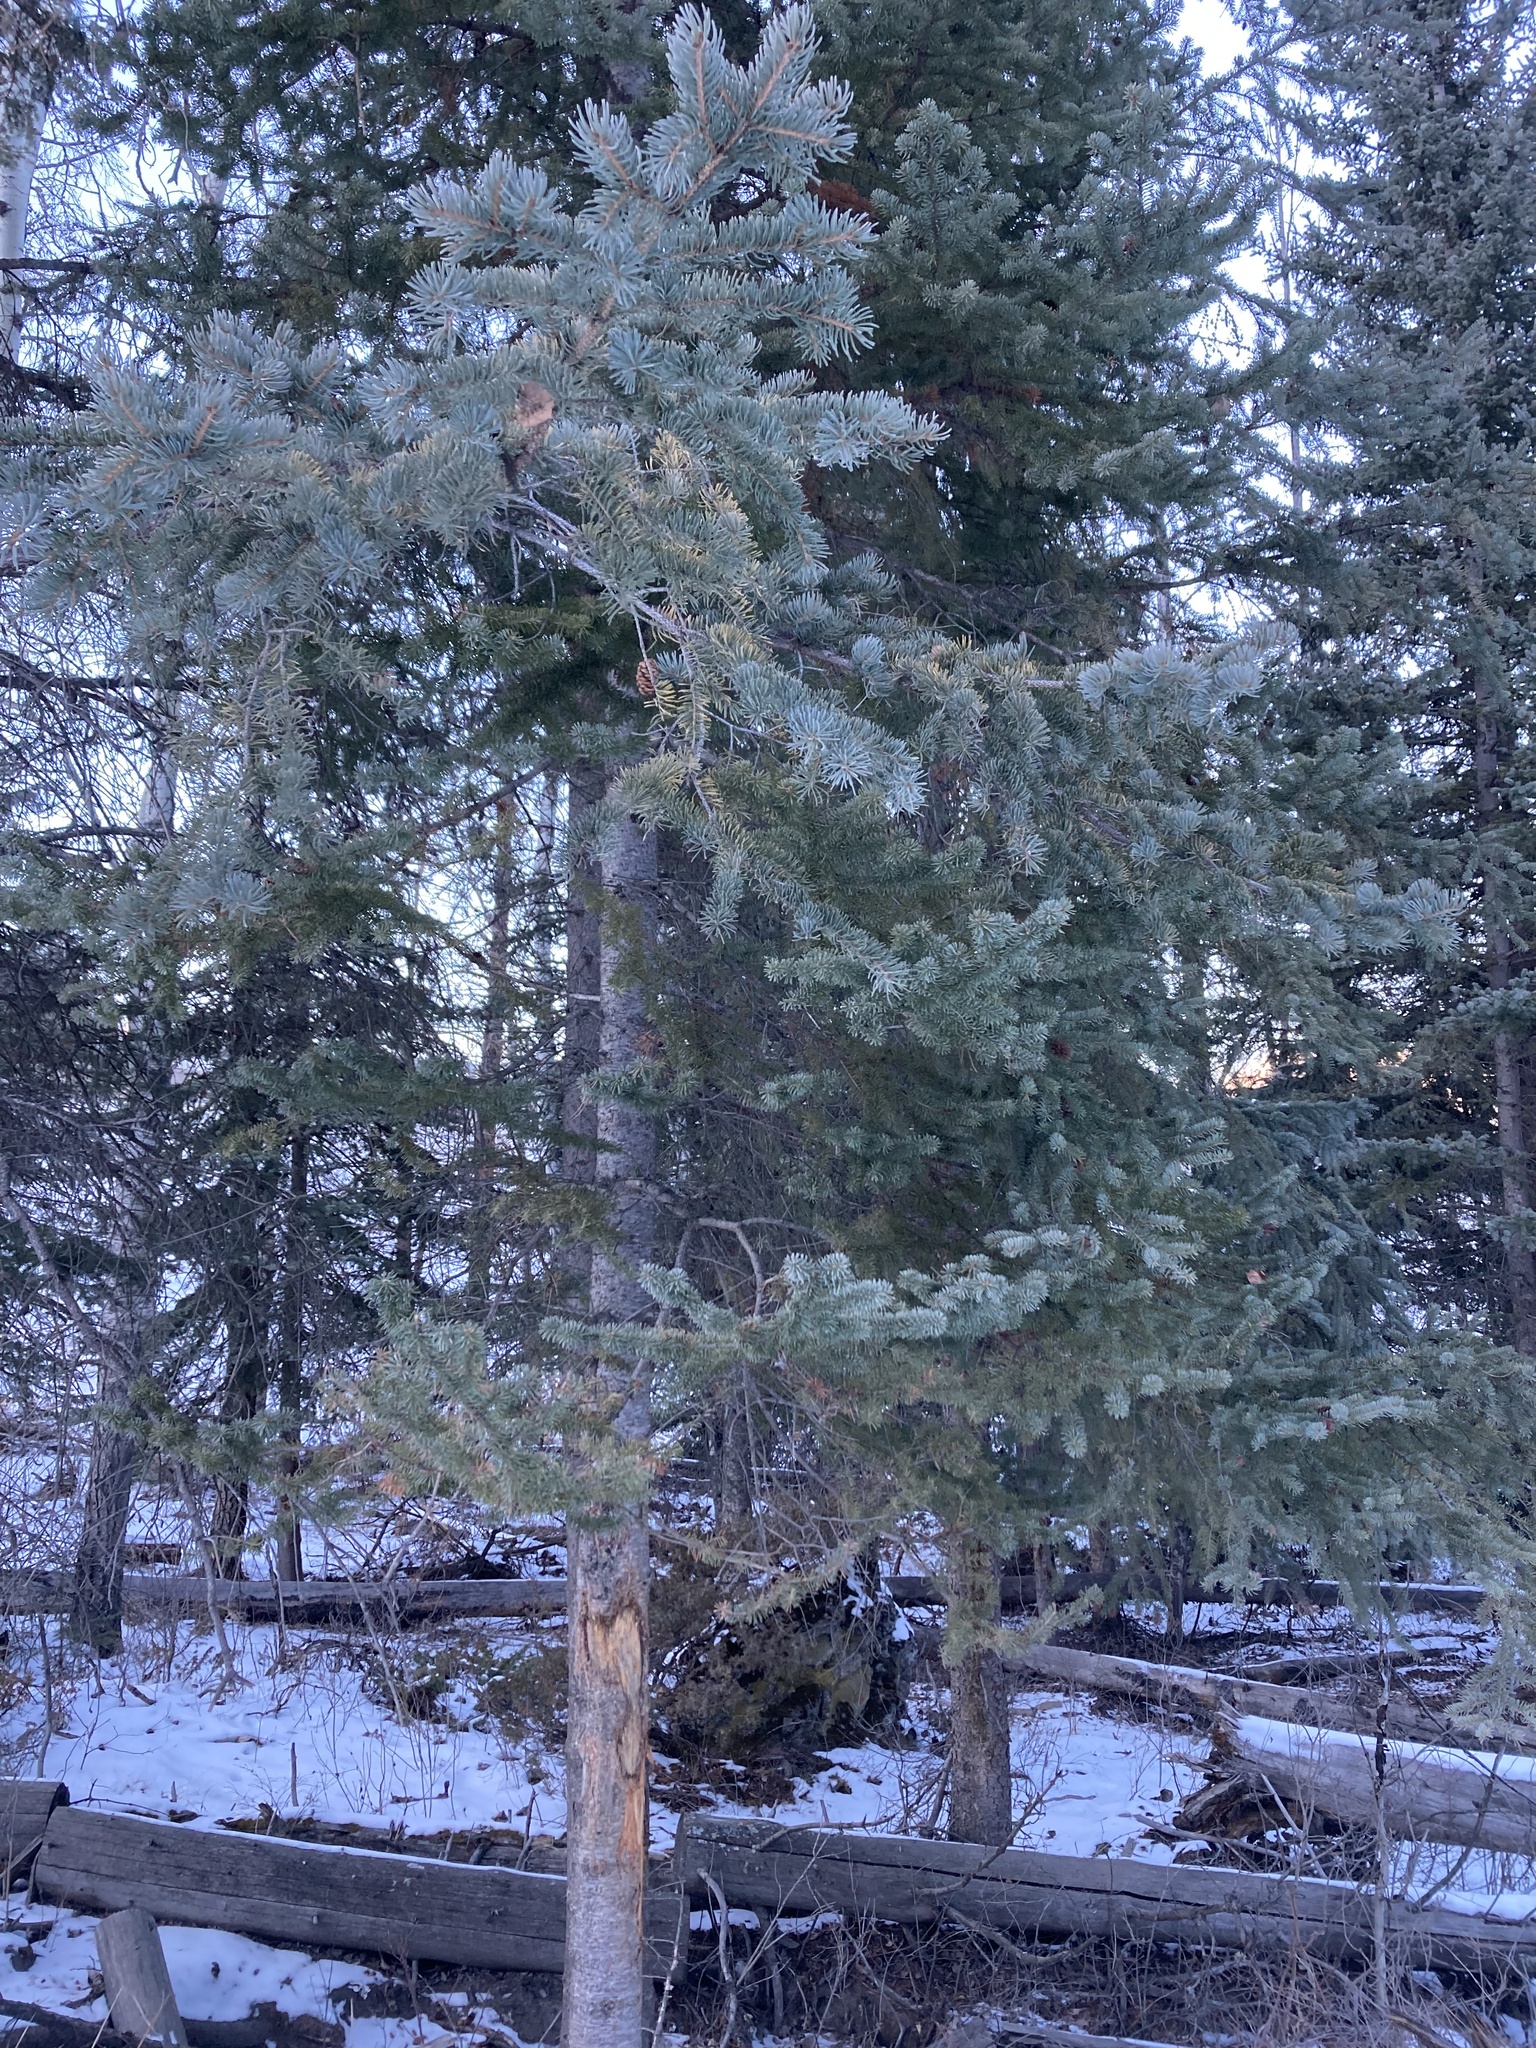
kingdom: Plantae
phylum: Tracheophyta
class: Pinopsida
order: Pinales
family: Pinaceae
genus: Picea
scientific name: Picea glauca
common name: White spruce
